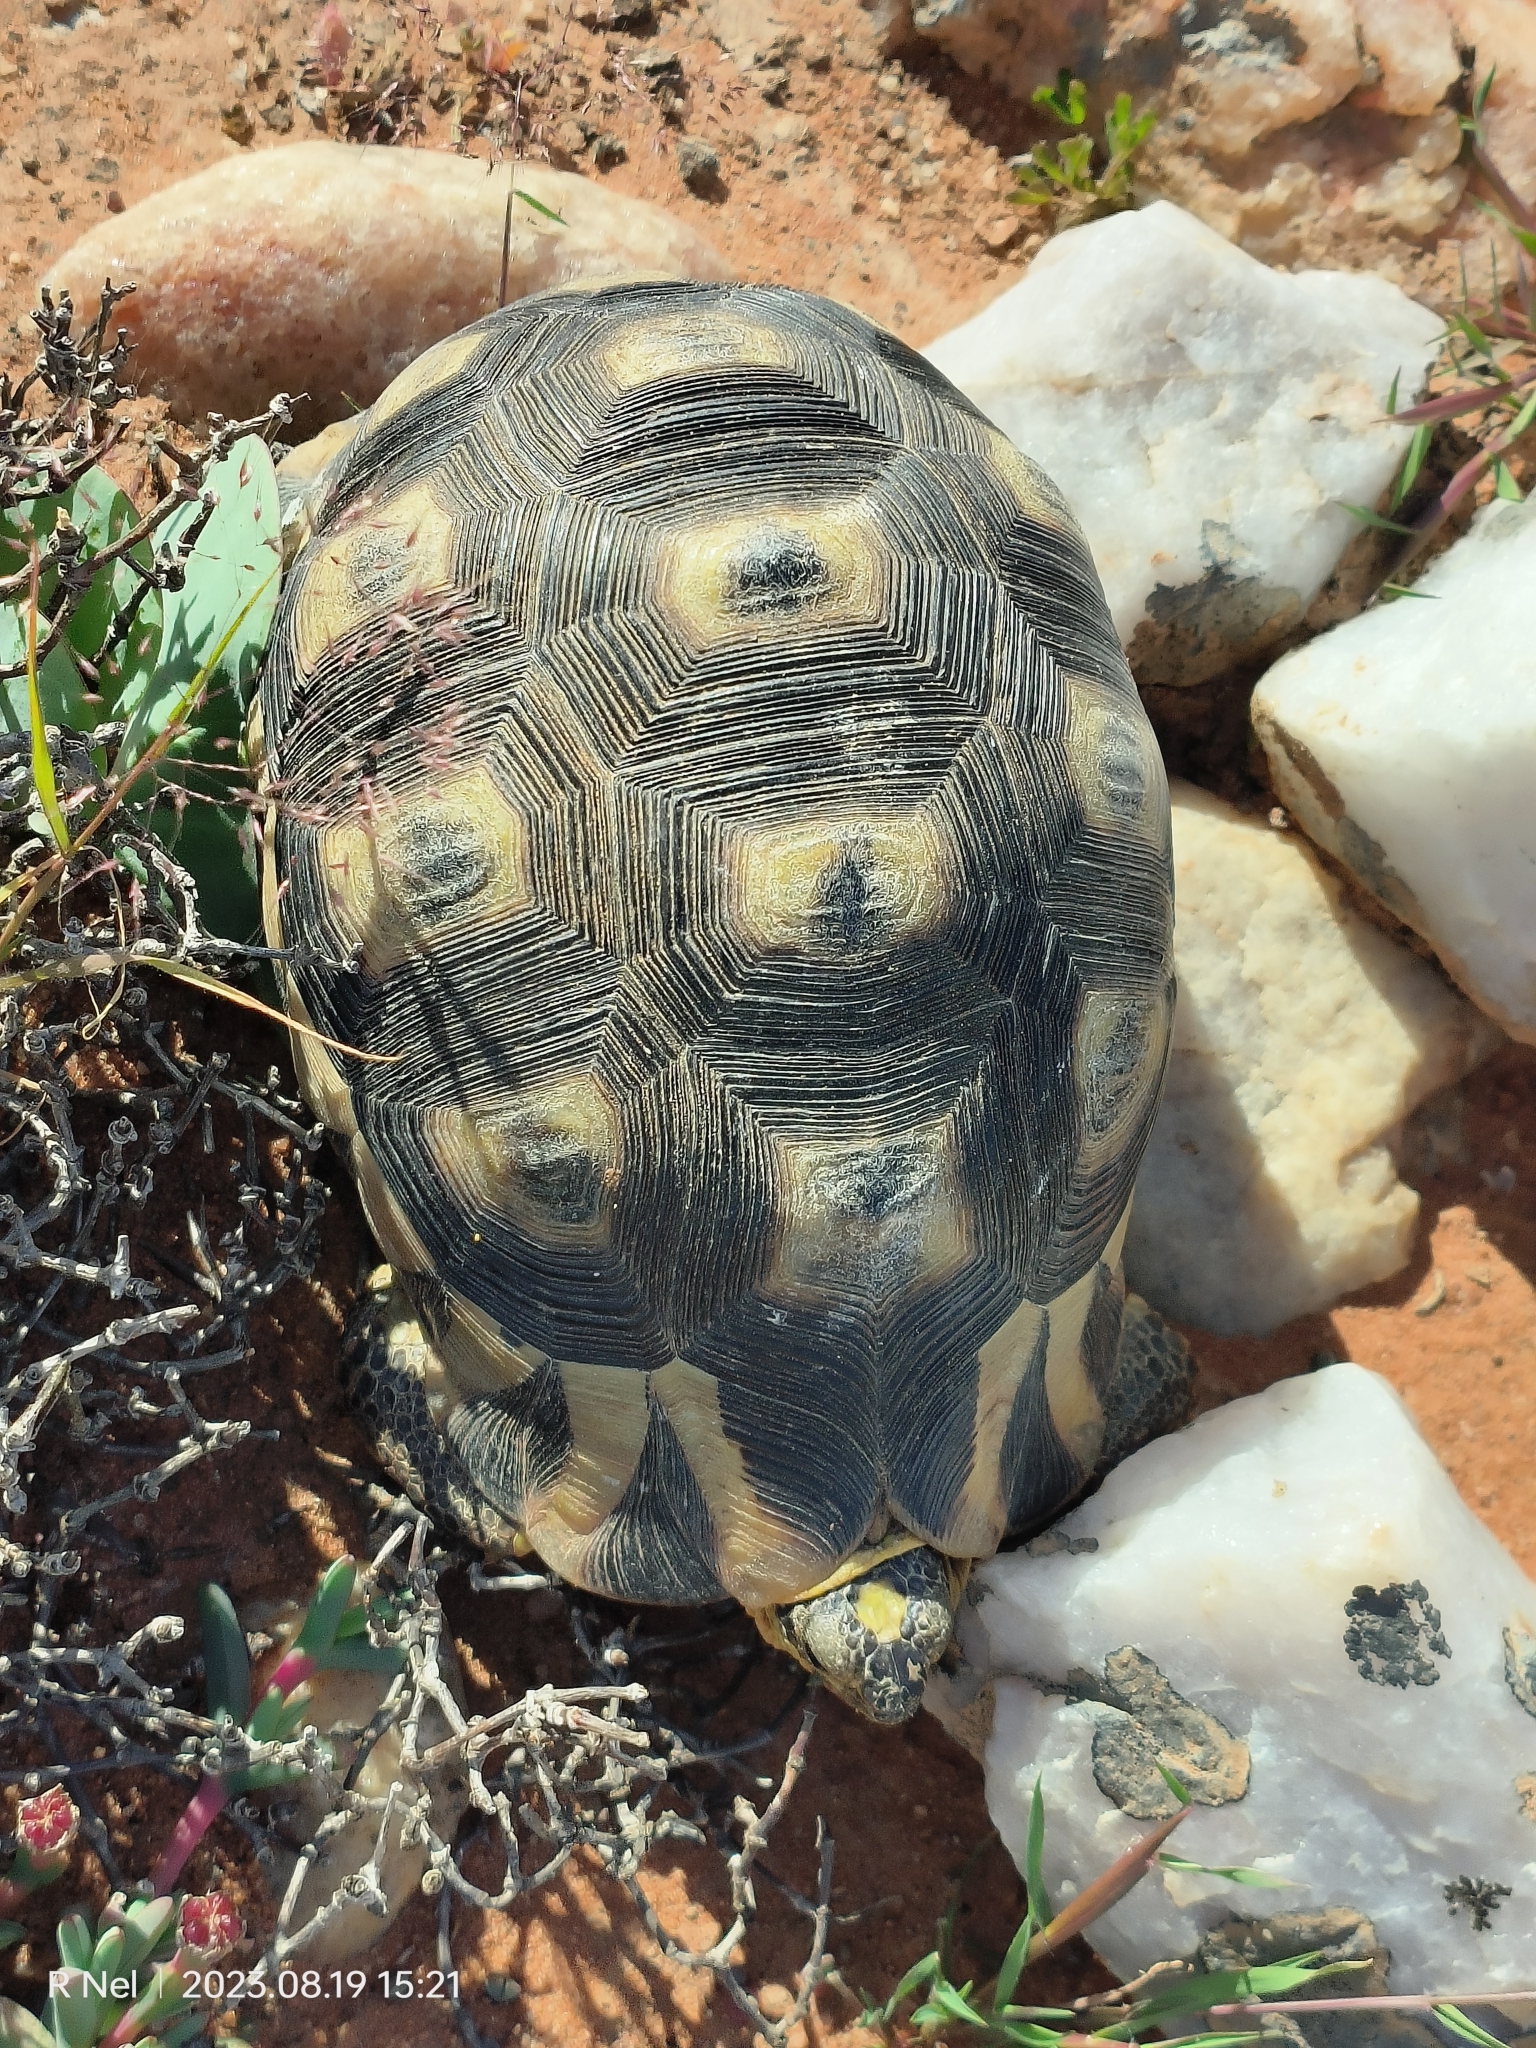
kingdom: Animalia
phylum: Chordata
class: Testudines
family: Testudinidae
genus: Chersina
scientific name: Chersina angulata
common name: South african bowsprit tortoise
